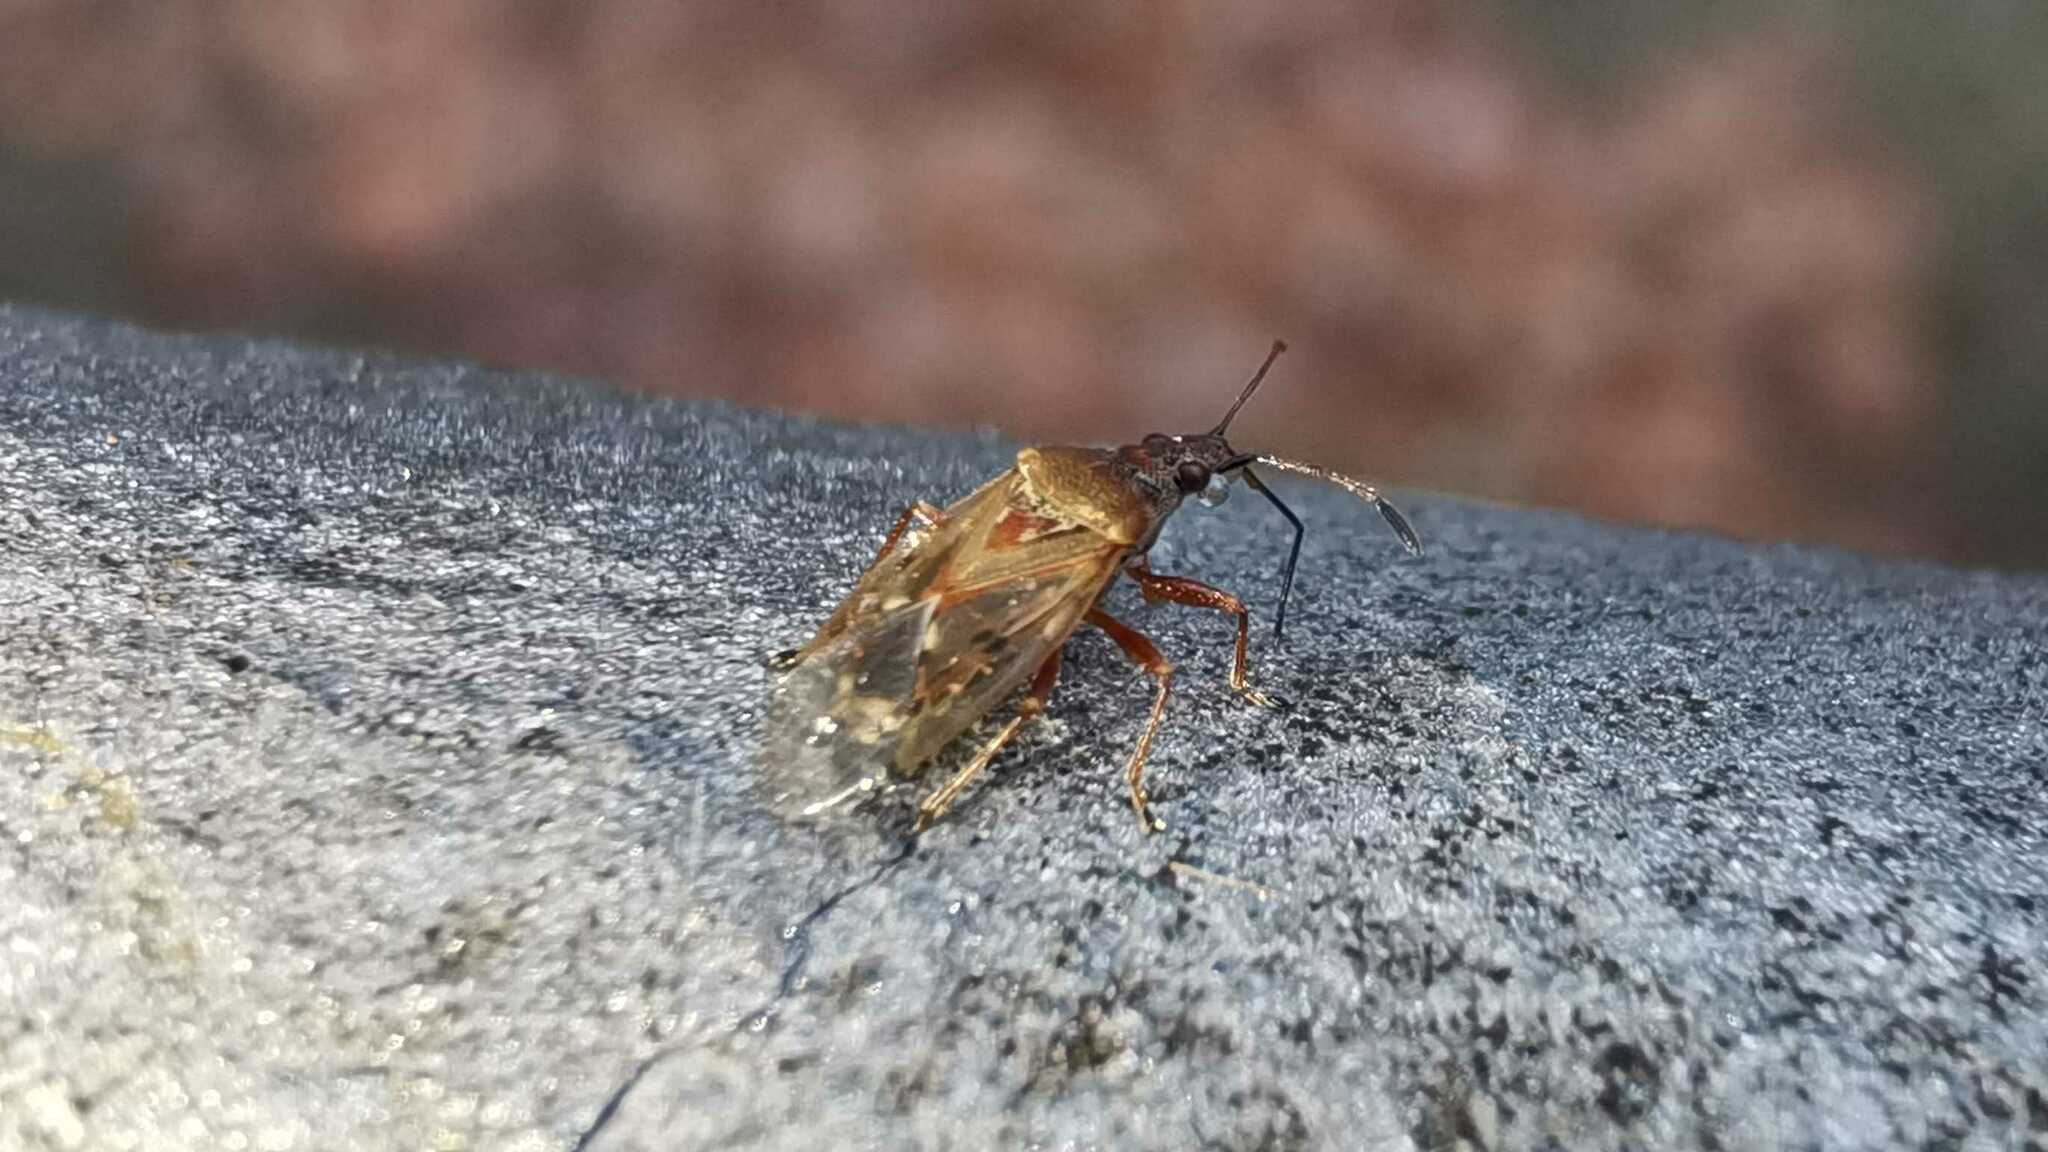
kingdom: Animalia
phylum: Arthropoda
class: Insecta
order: Hemiptera
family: Lygaeidae
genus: Kleidocerys
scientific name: Kleidocerys resedae
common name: Birch catkin bug
